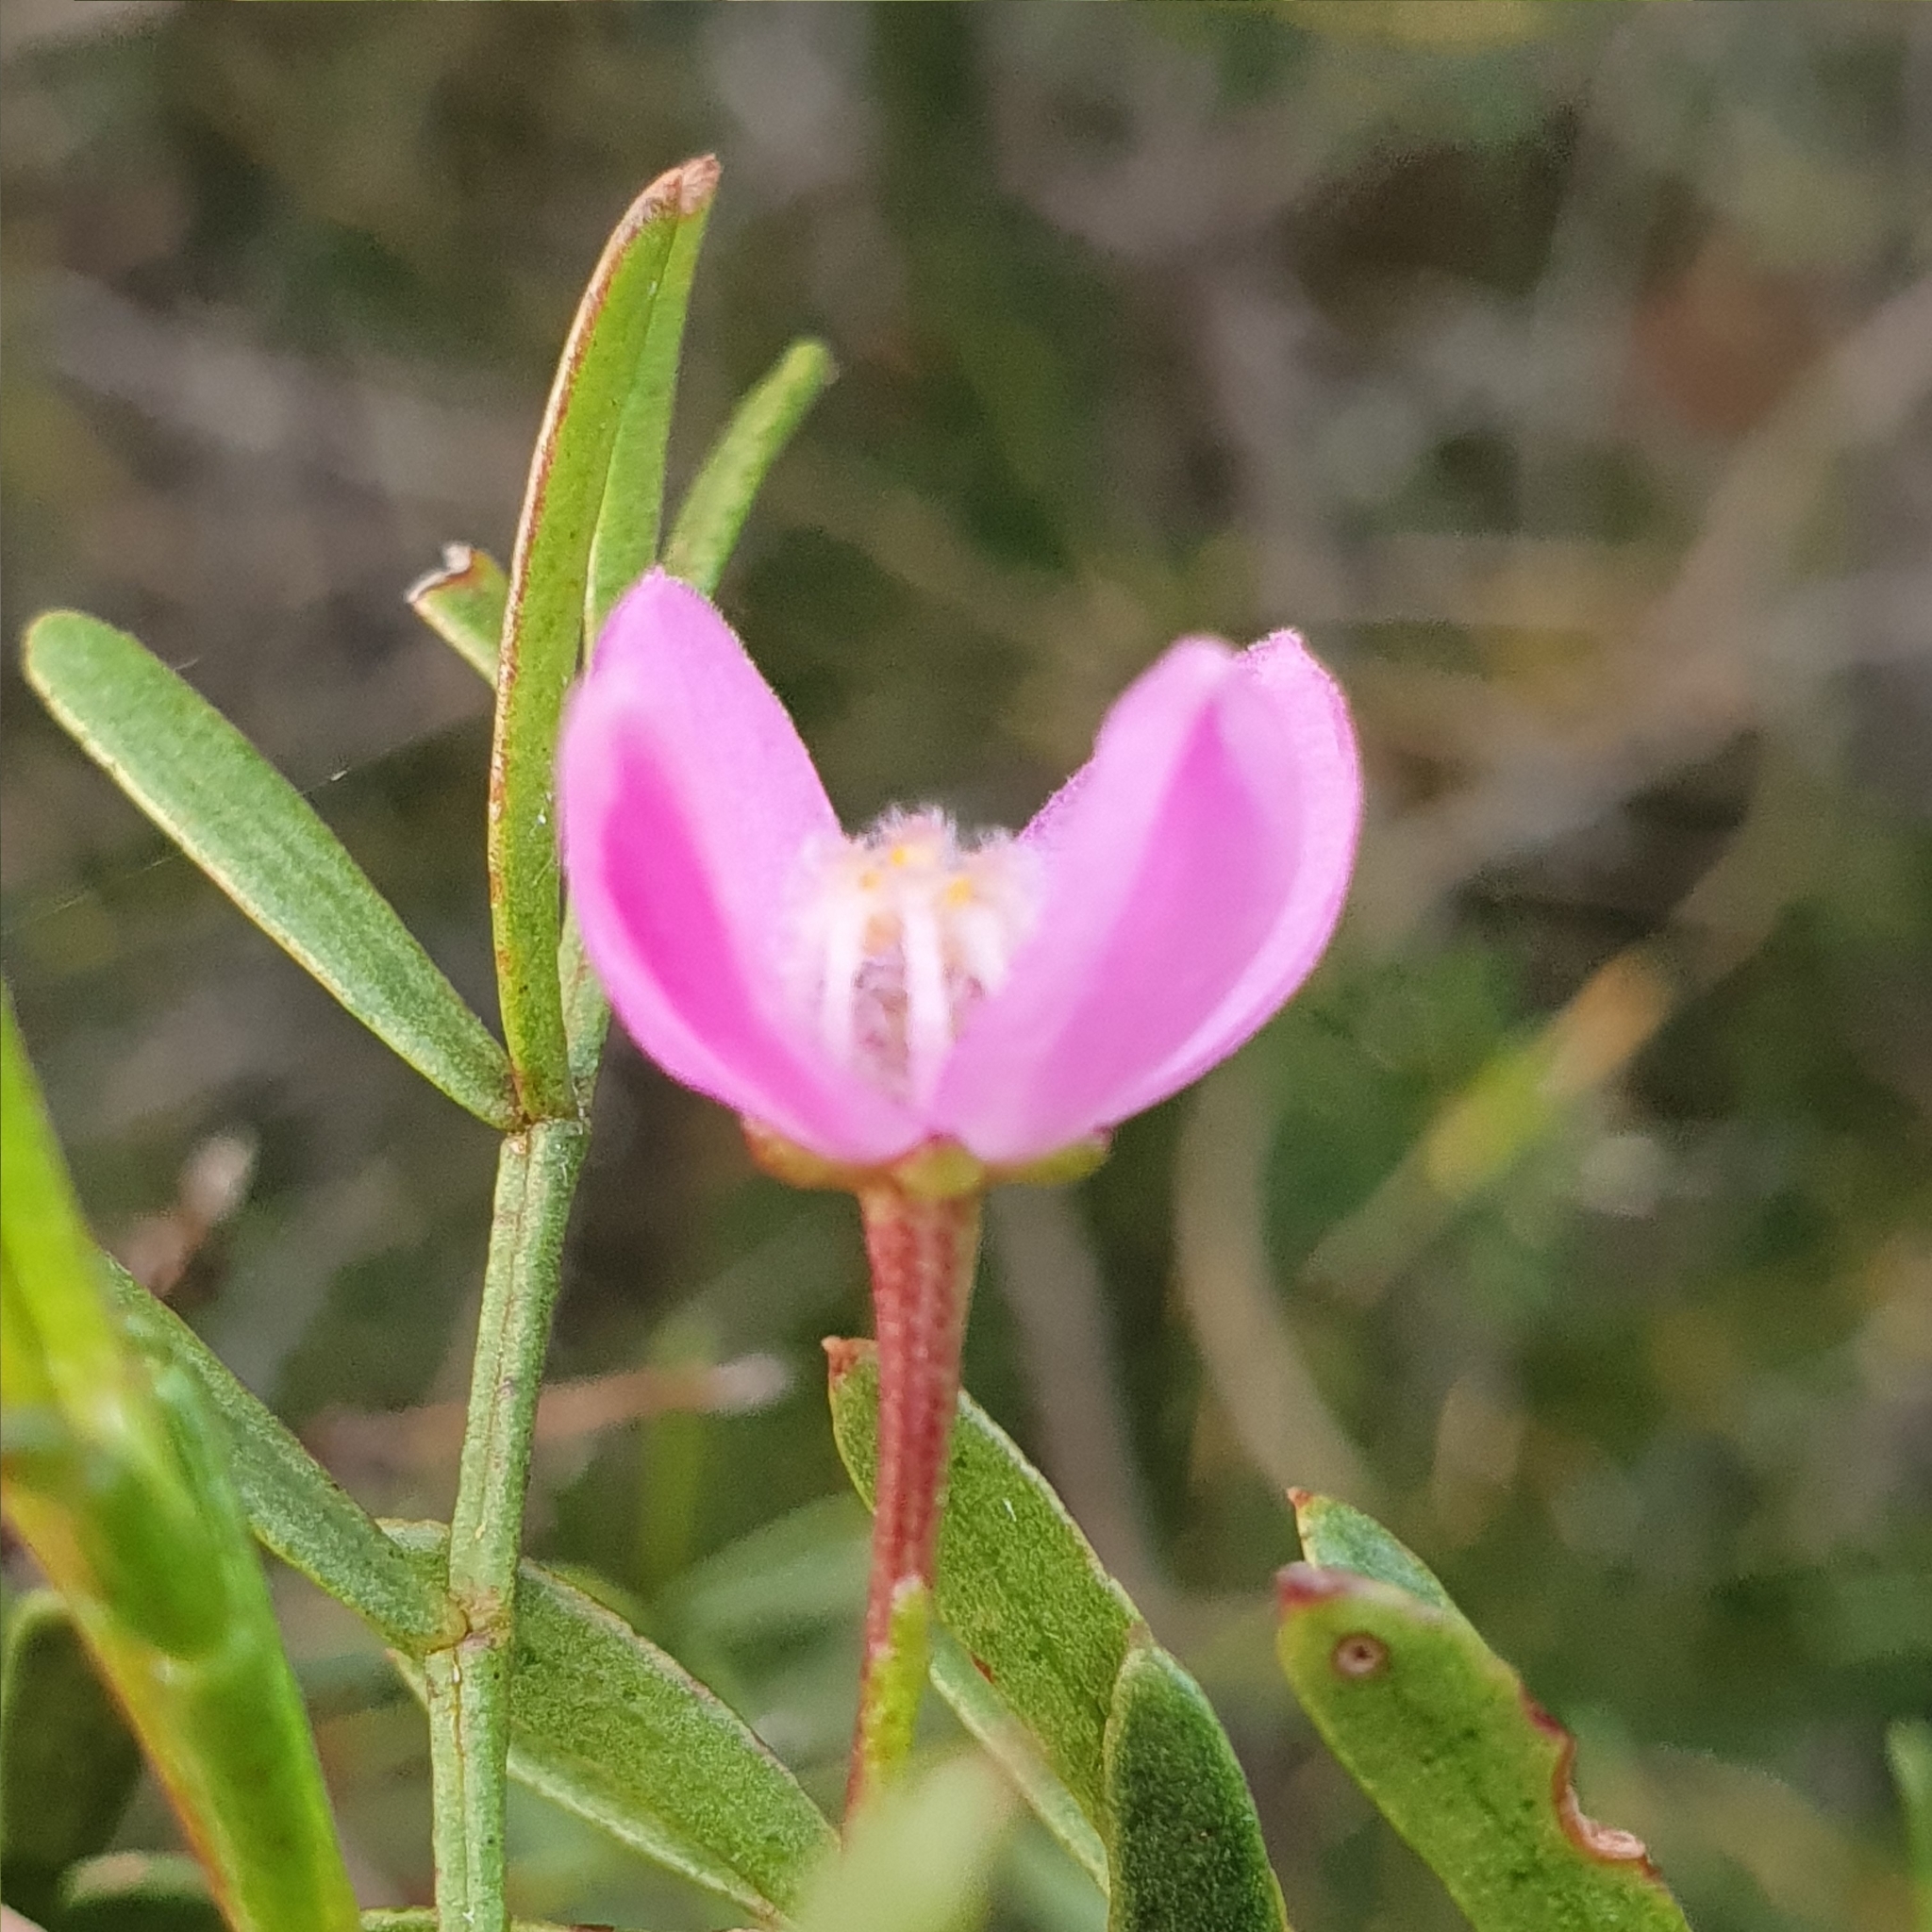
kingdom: Plantae
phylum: Tracheophyta
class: Magnoliopsida
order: Sapindales
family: Rutaceae
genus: Boronia
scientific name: Boronia thujona
